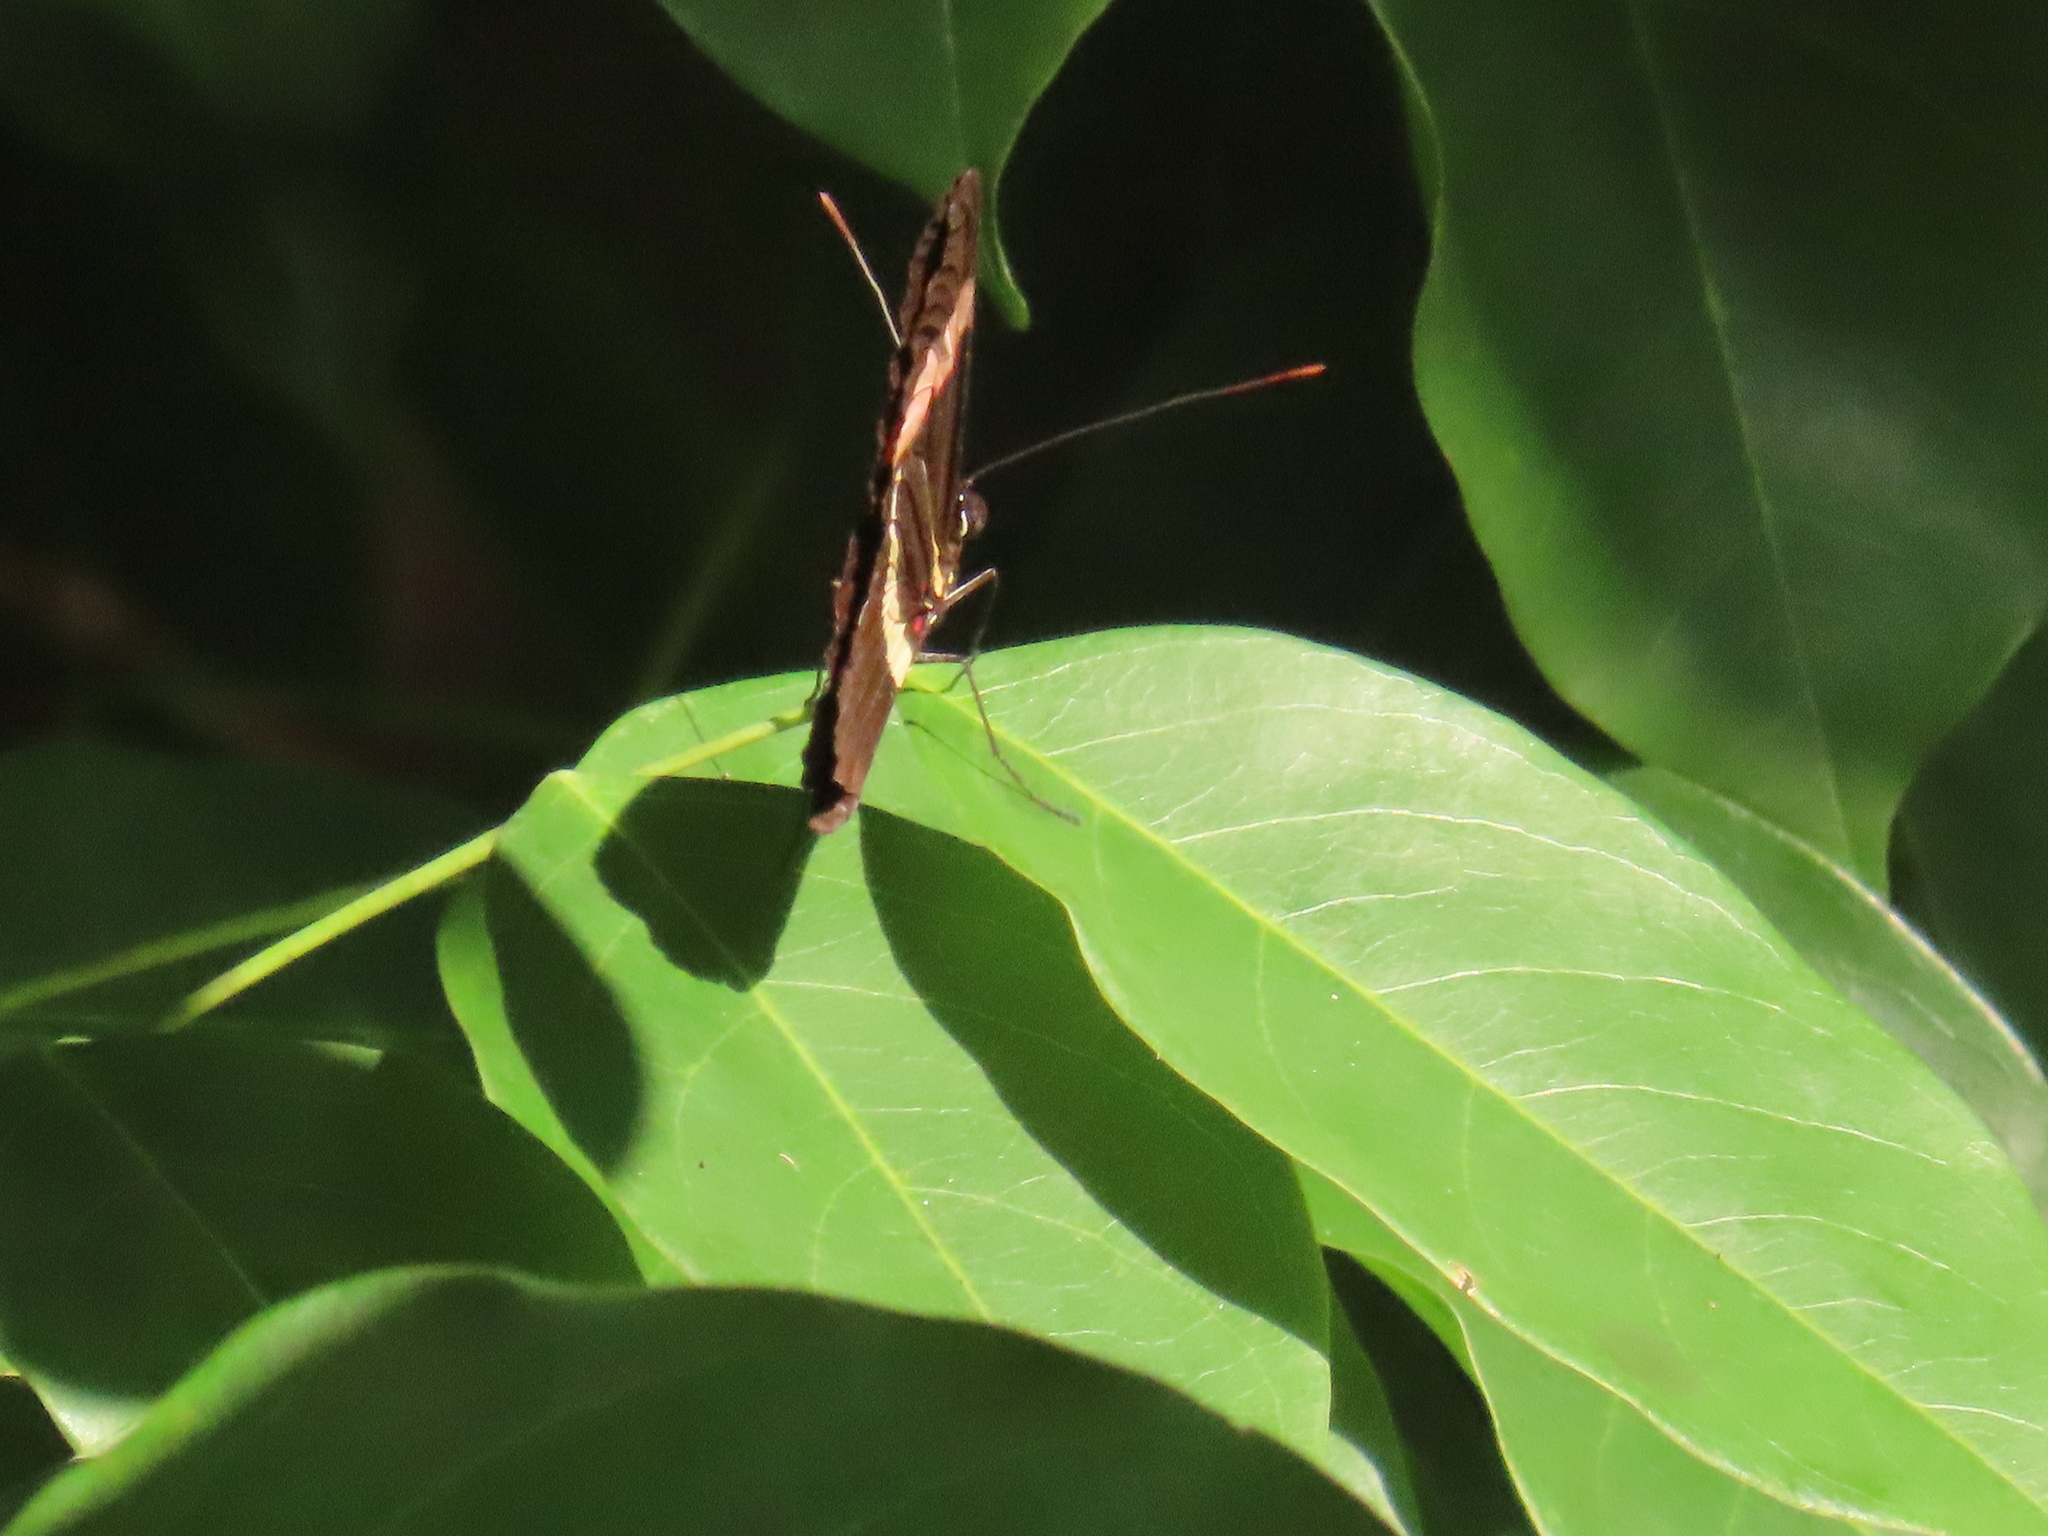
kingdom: Animalia
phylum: Arthropoda
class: Insecta
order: Lepidoptera
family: Nymphalidae
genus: Heliconius
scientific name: Heliconius erato
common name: Common patch longwing
